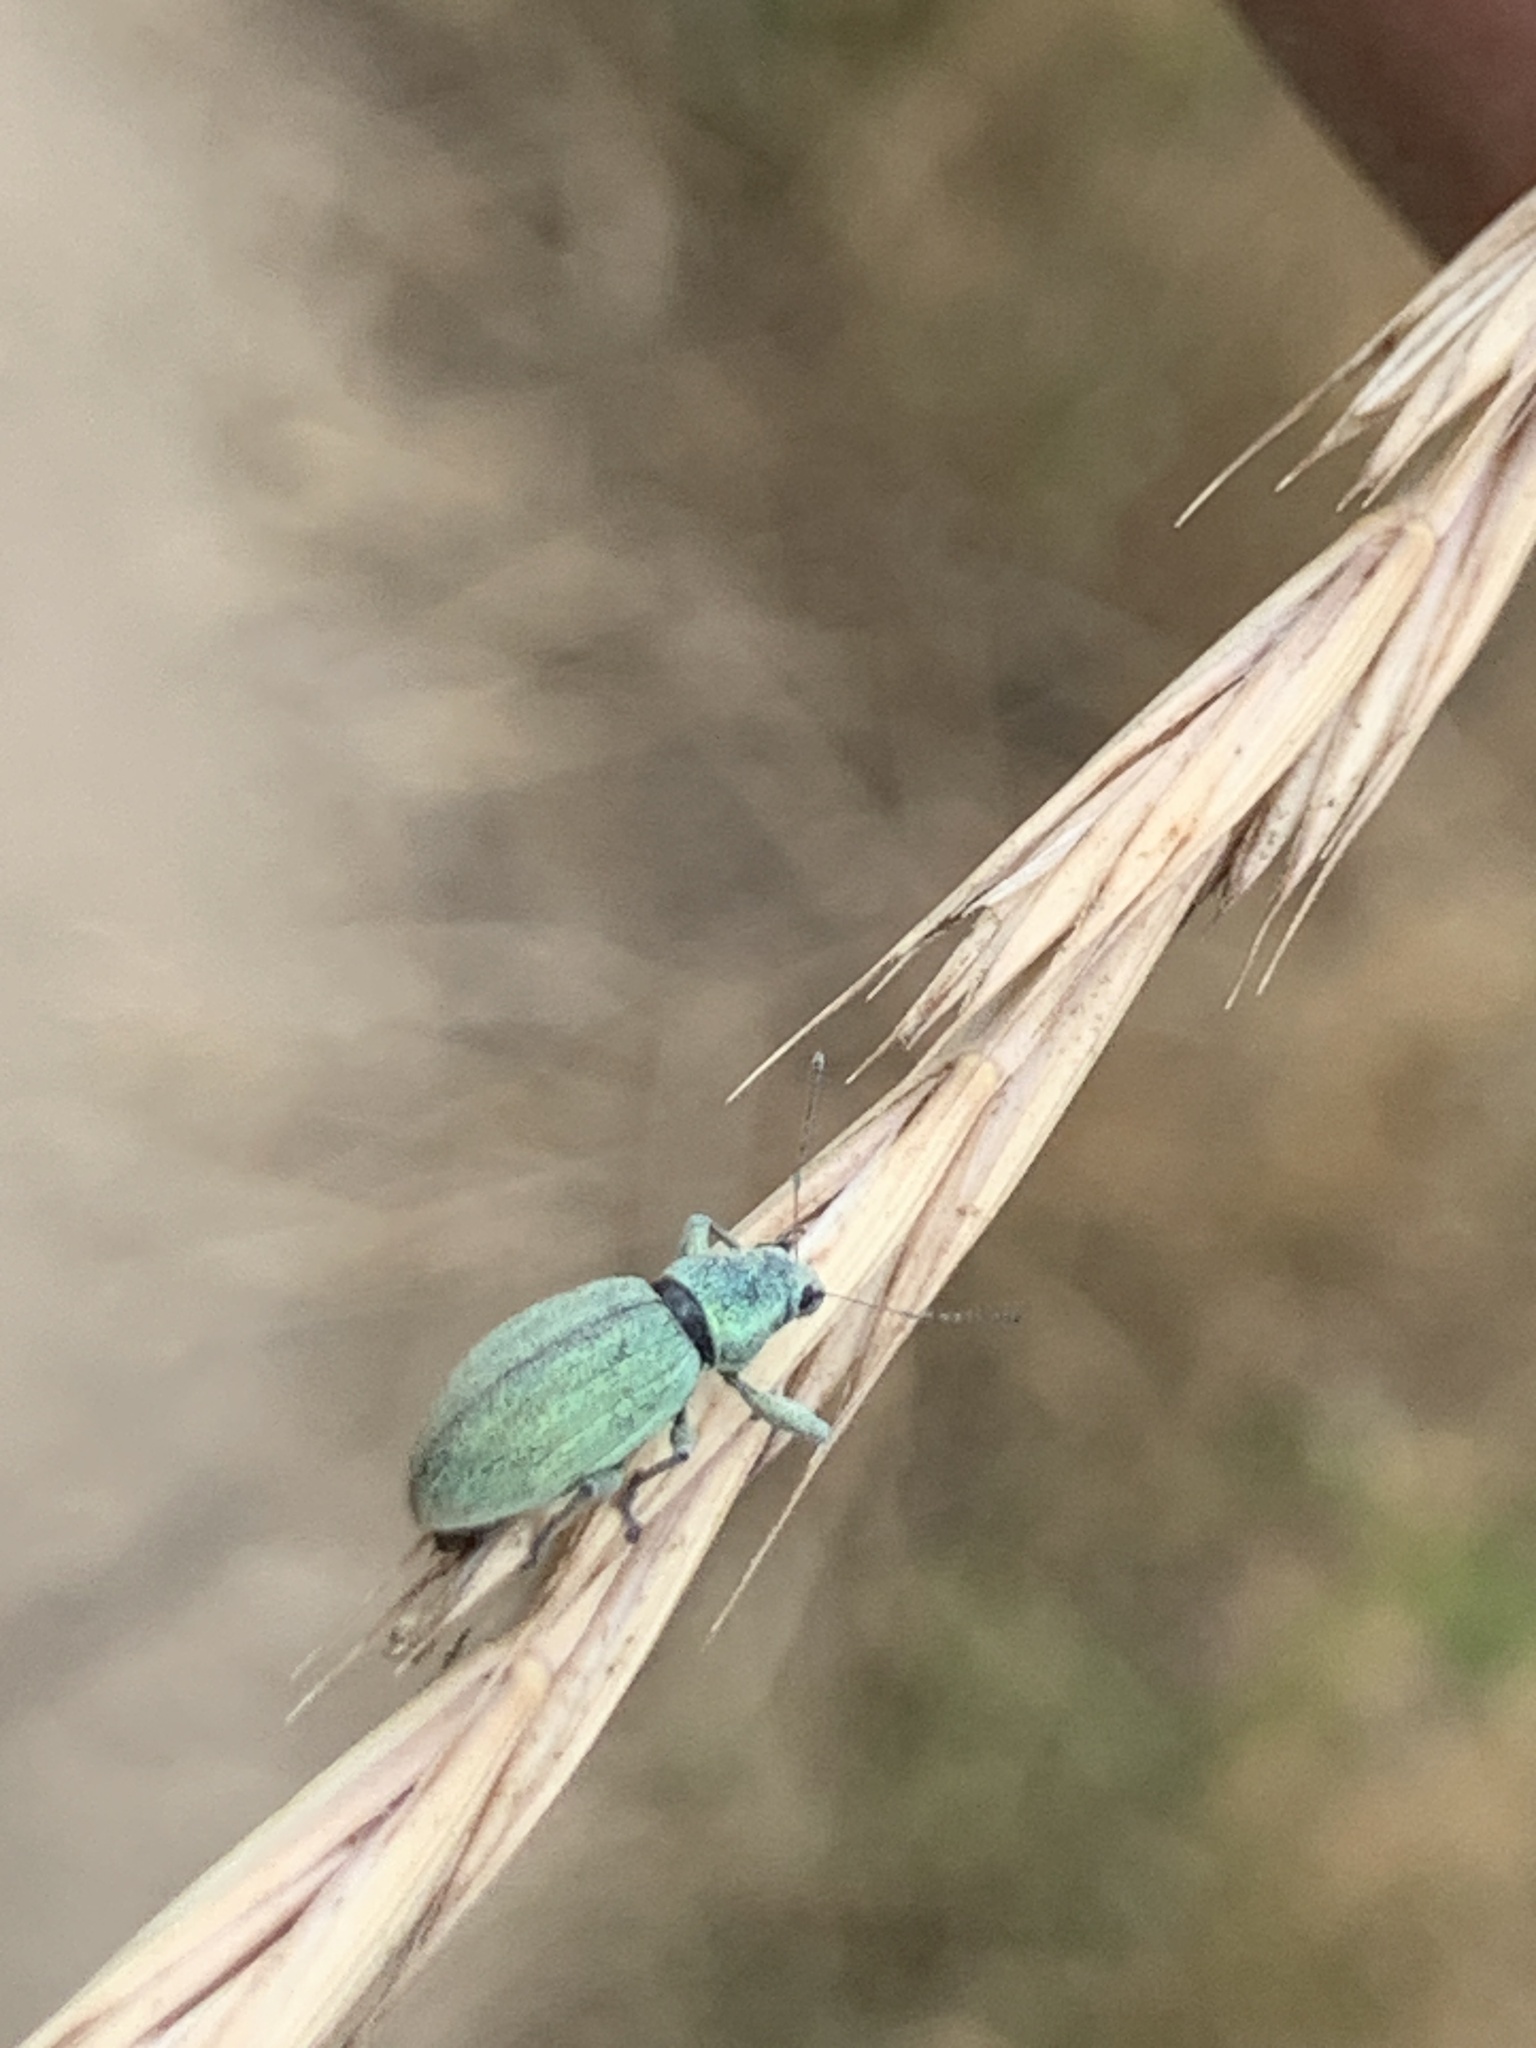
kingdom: Animalia
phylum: Arthropoda
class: Insecta
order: Coleoptera
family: Curculionidae
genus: Eusomus
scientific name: Eusomus ovulum
